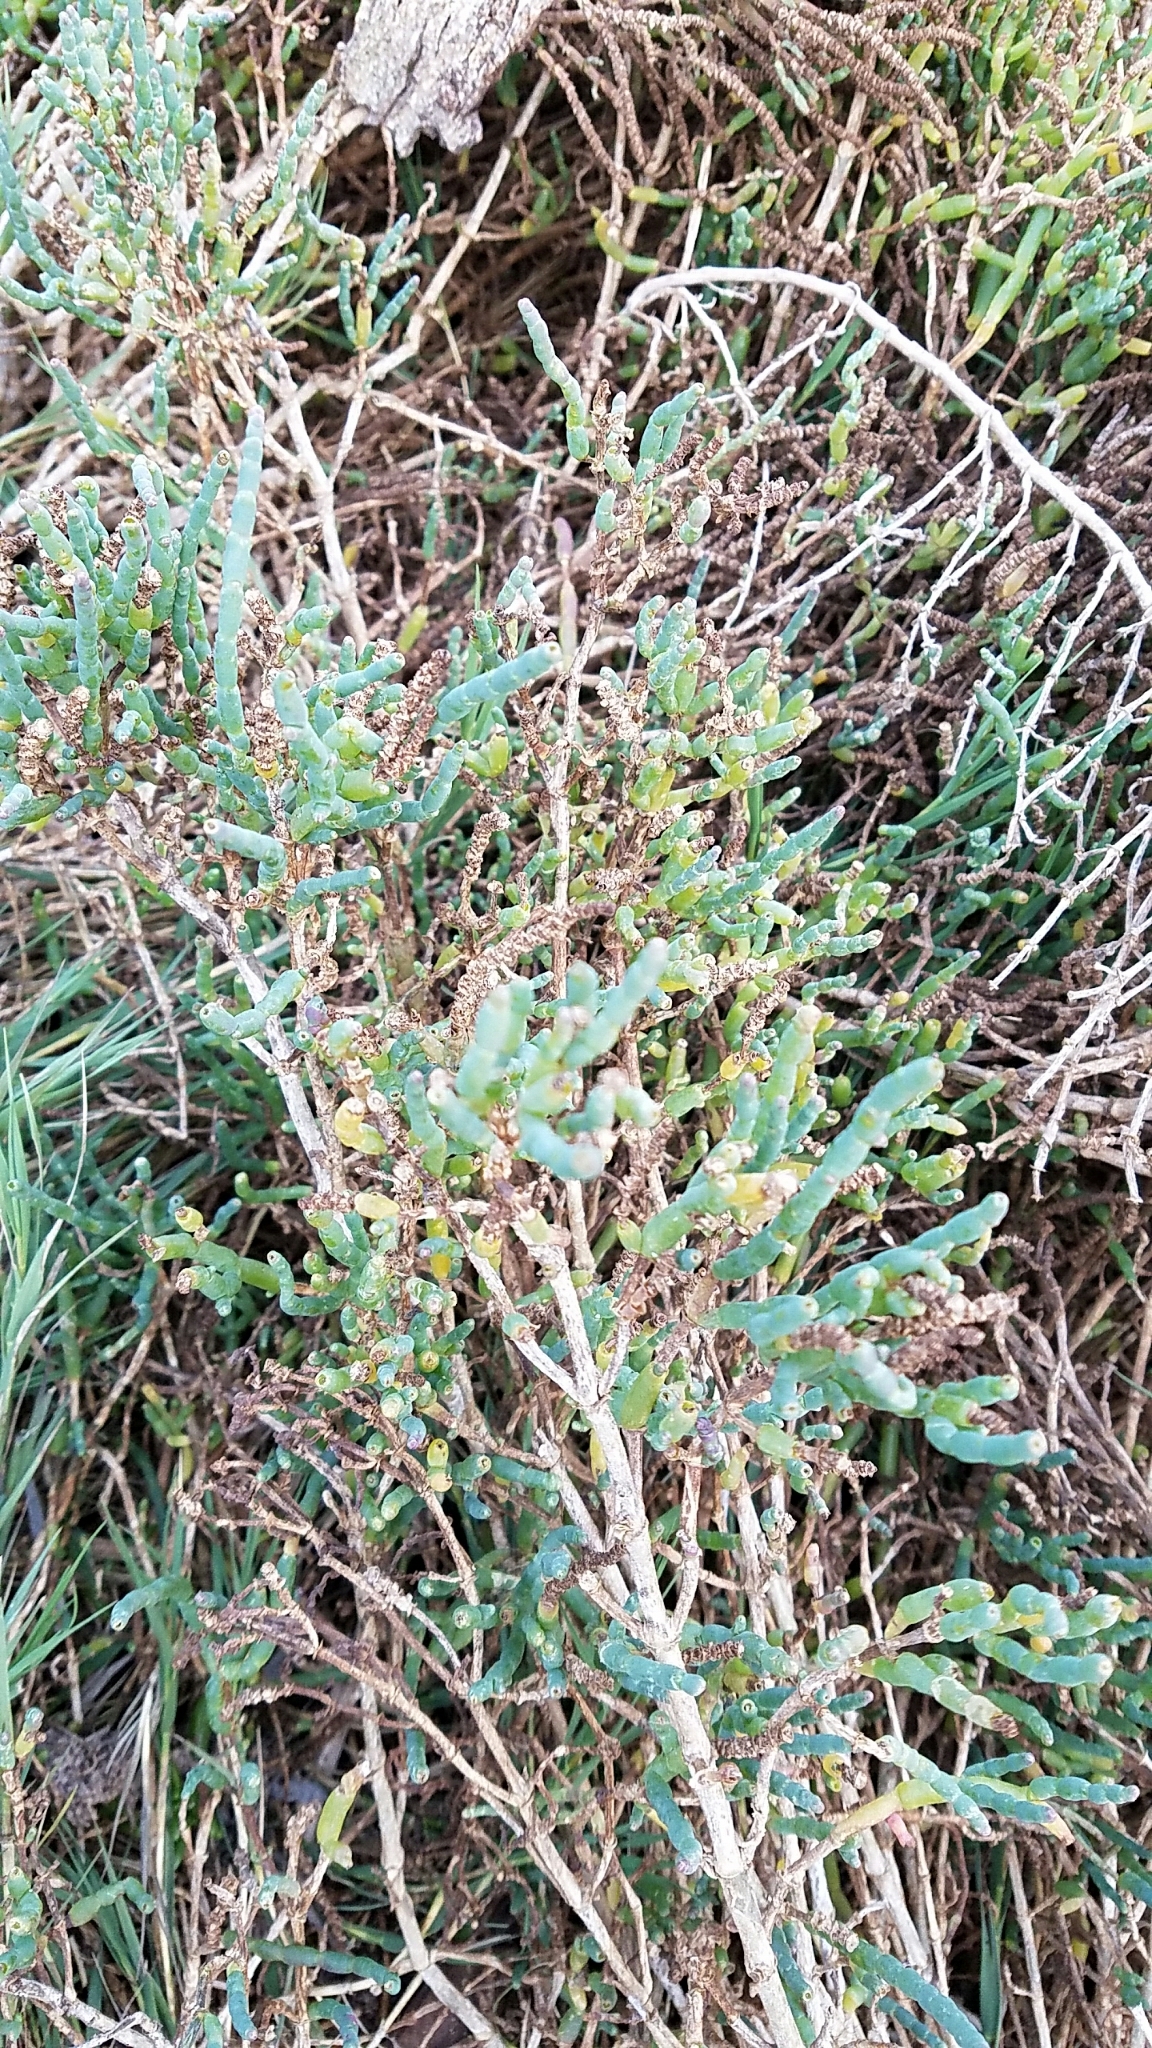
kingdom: Plantae
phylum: Tracheophyta
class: Magnoliopsida
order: Caryophyllales
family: Amaranthaceae
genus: Salicornia
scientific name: Salicornia pacifica
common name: Pacific glasswort
